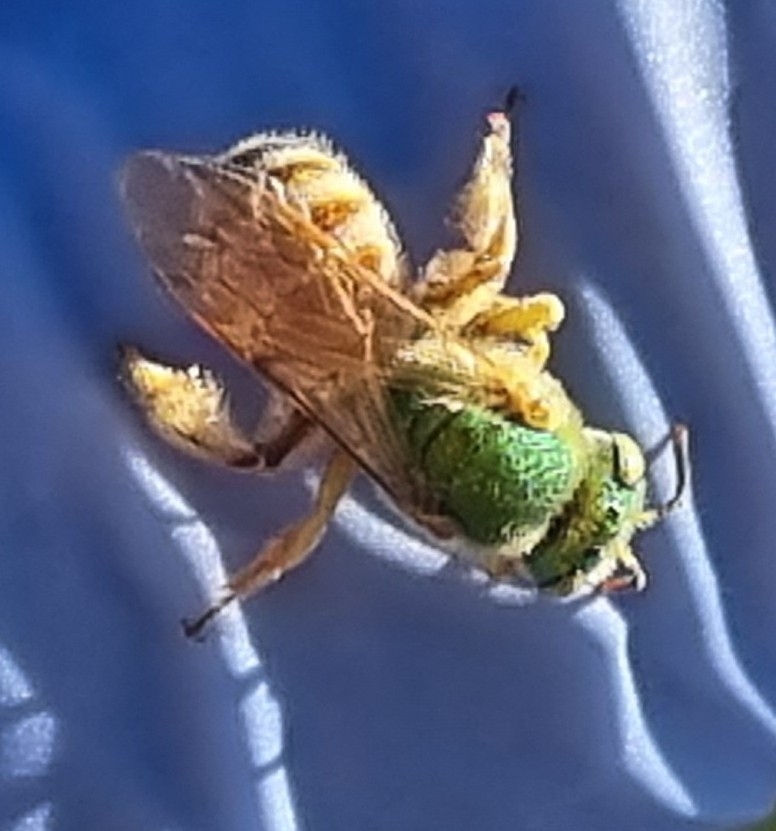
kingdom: Animalia
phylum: Arthropoda
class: Insecta
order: Hymenoptera
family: Halictidae
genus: Agapostemon
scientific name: Agapostemon melliventris
